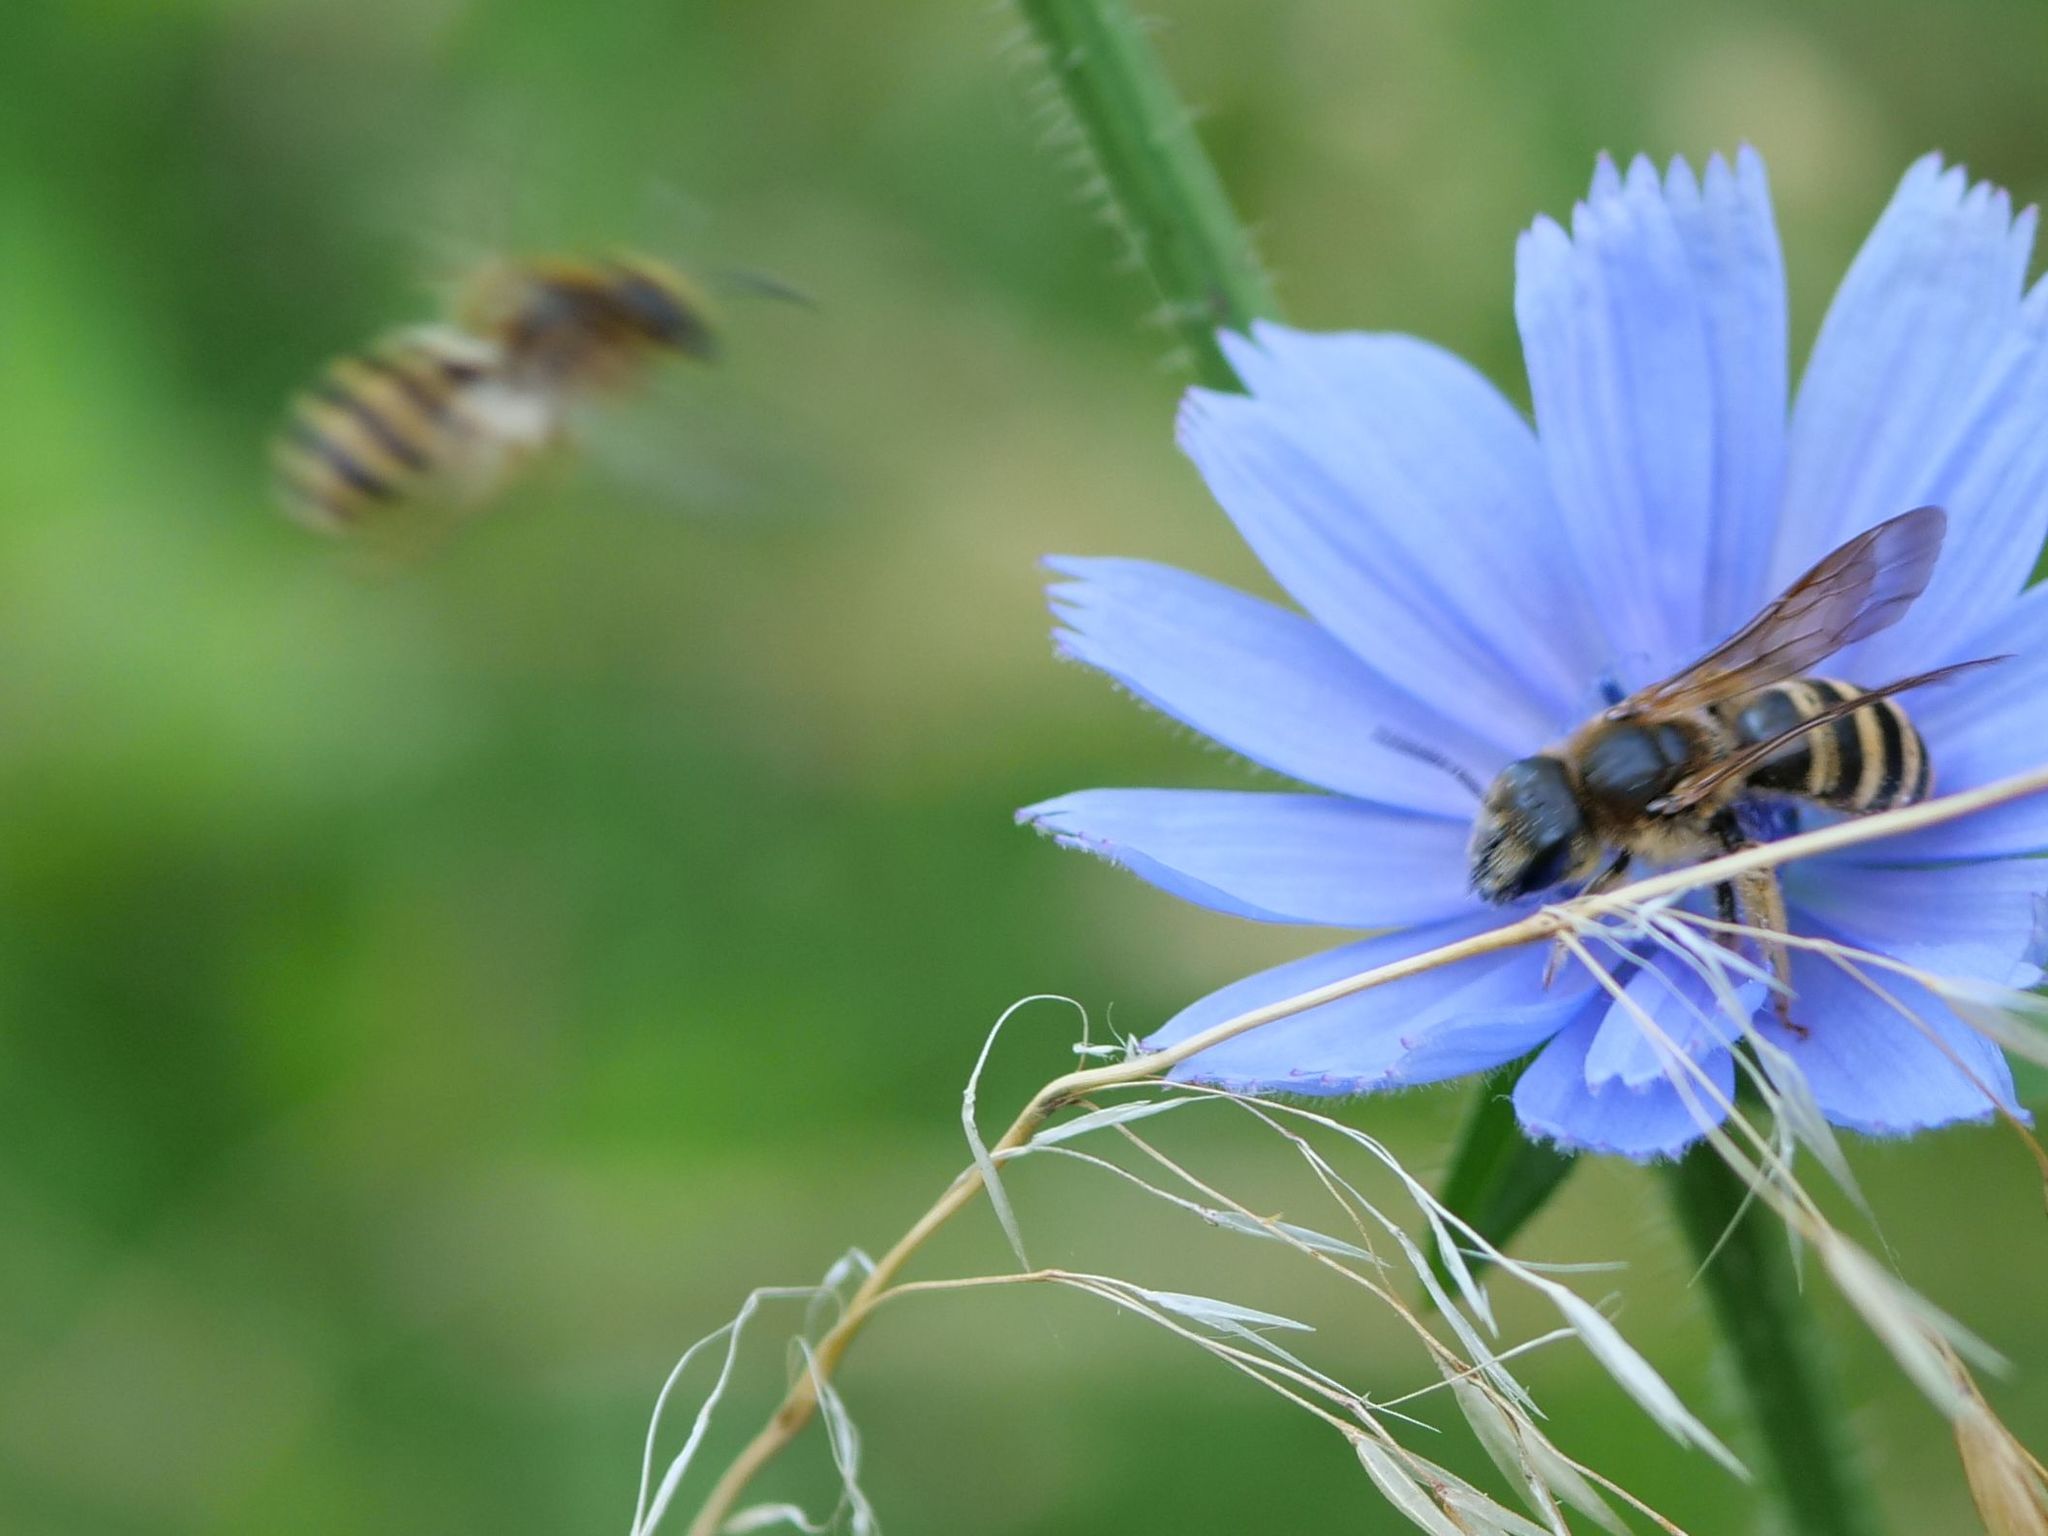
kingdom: Animalia
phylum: Arthropoda
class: Insecta
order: Hymenoptera
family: Halictidae
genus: Halictus
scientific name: Halictus scabiosae
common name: Great banded furrow bee
